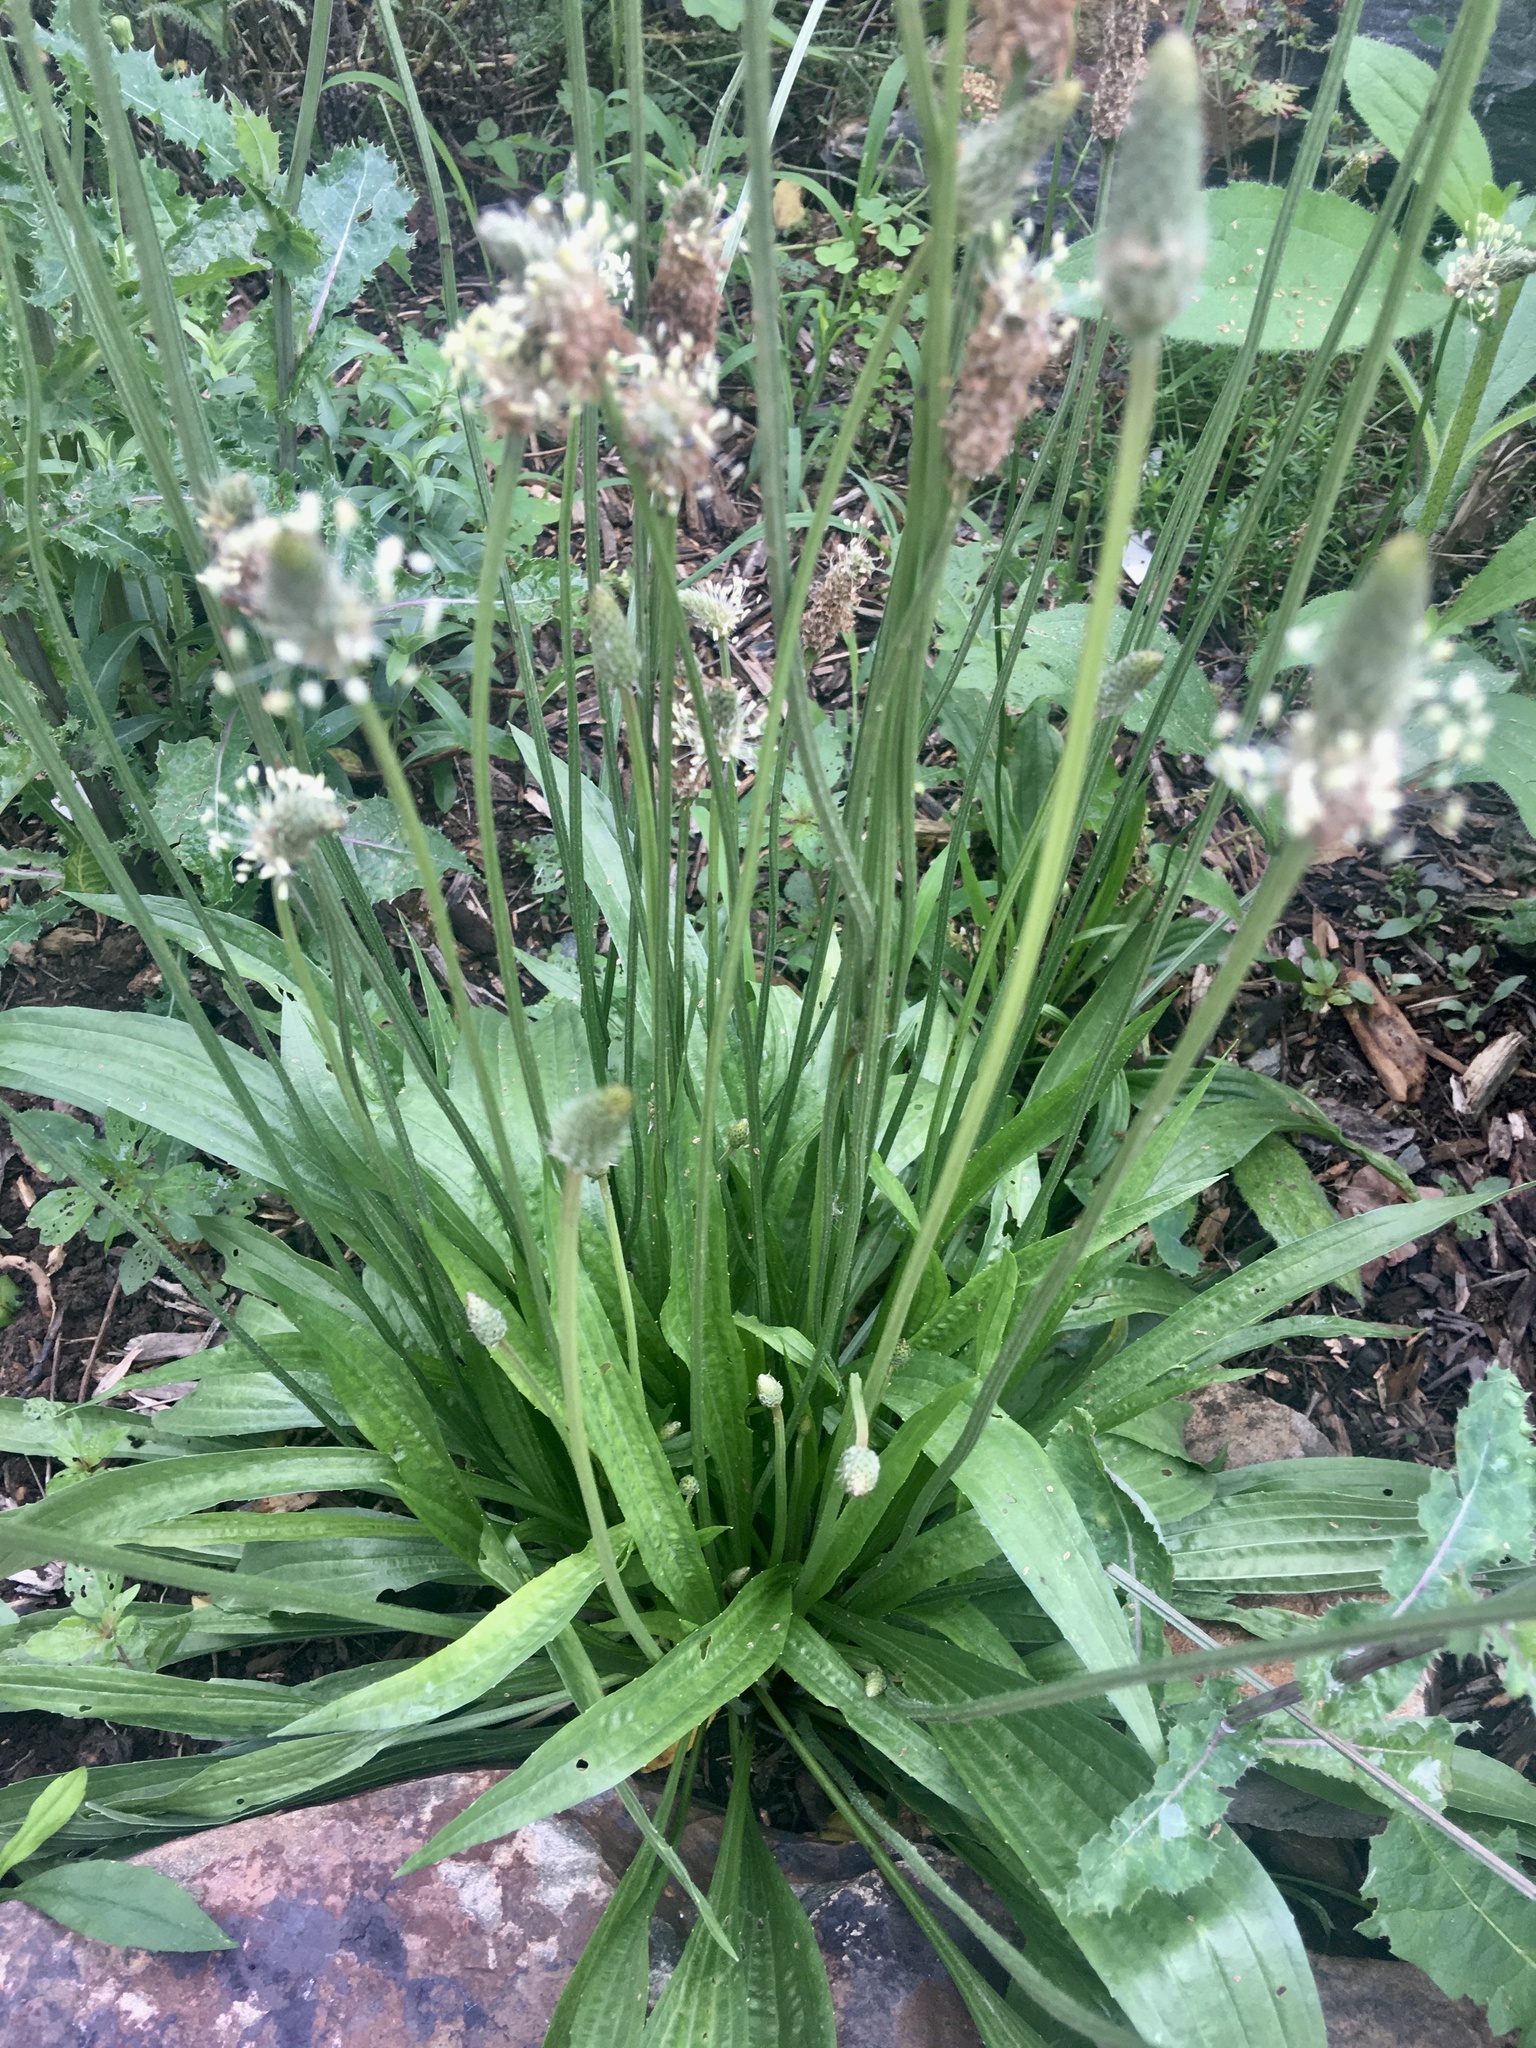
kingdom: Plantae
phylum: Tracheophyta
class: Magnoliopsida
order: Lamiales
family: Plantaginaceae
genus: Plantago
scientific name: Plantago lanceolata
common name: Ribwort plantain
